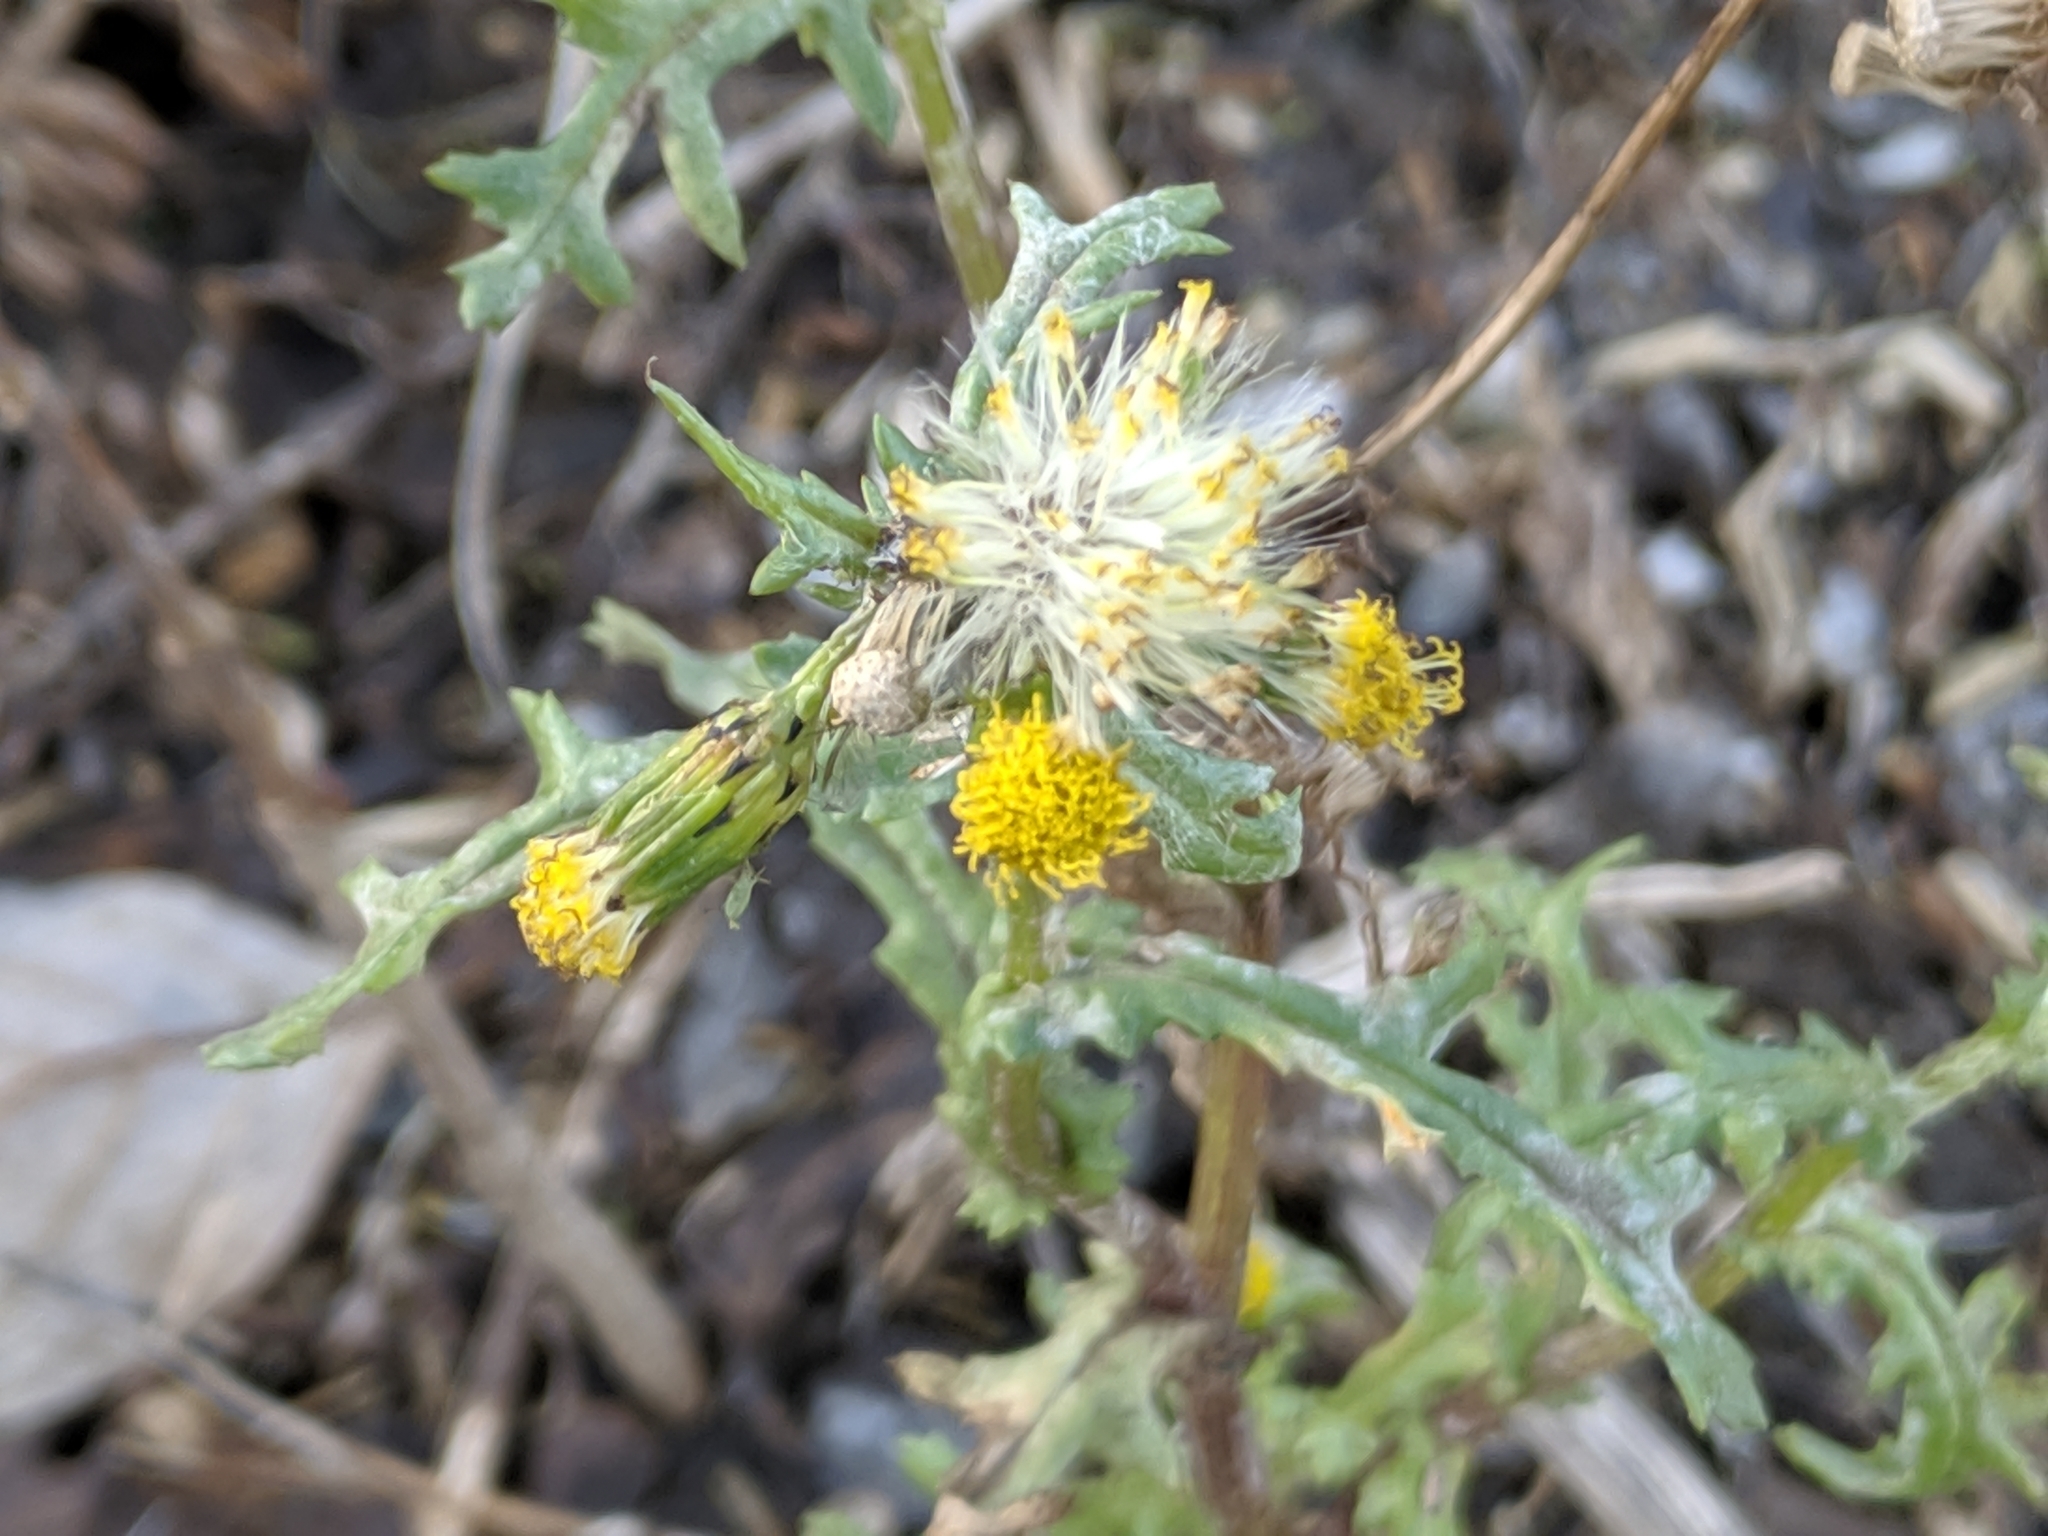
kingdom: Plantae
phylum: Tracheophyta
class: Magnoliopsida
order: Asterales
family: Asteraceae
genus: Senecio
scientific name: Senecio vulgaris
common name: Old-man-in-the-spring
